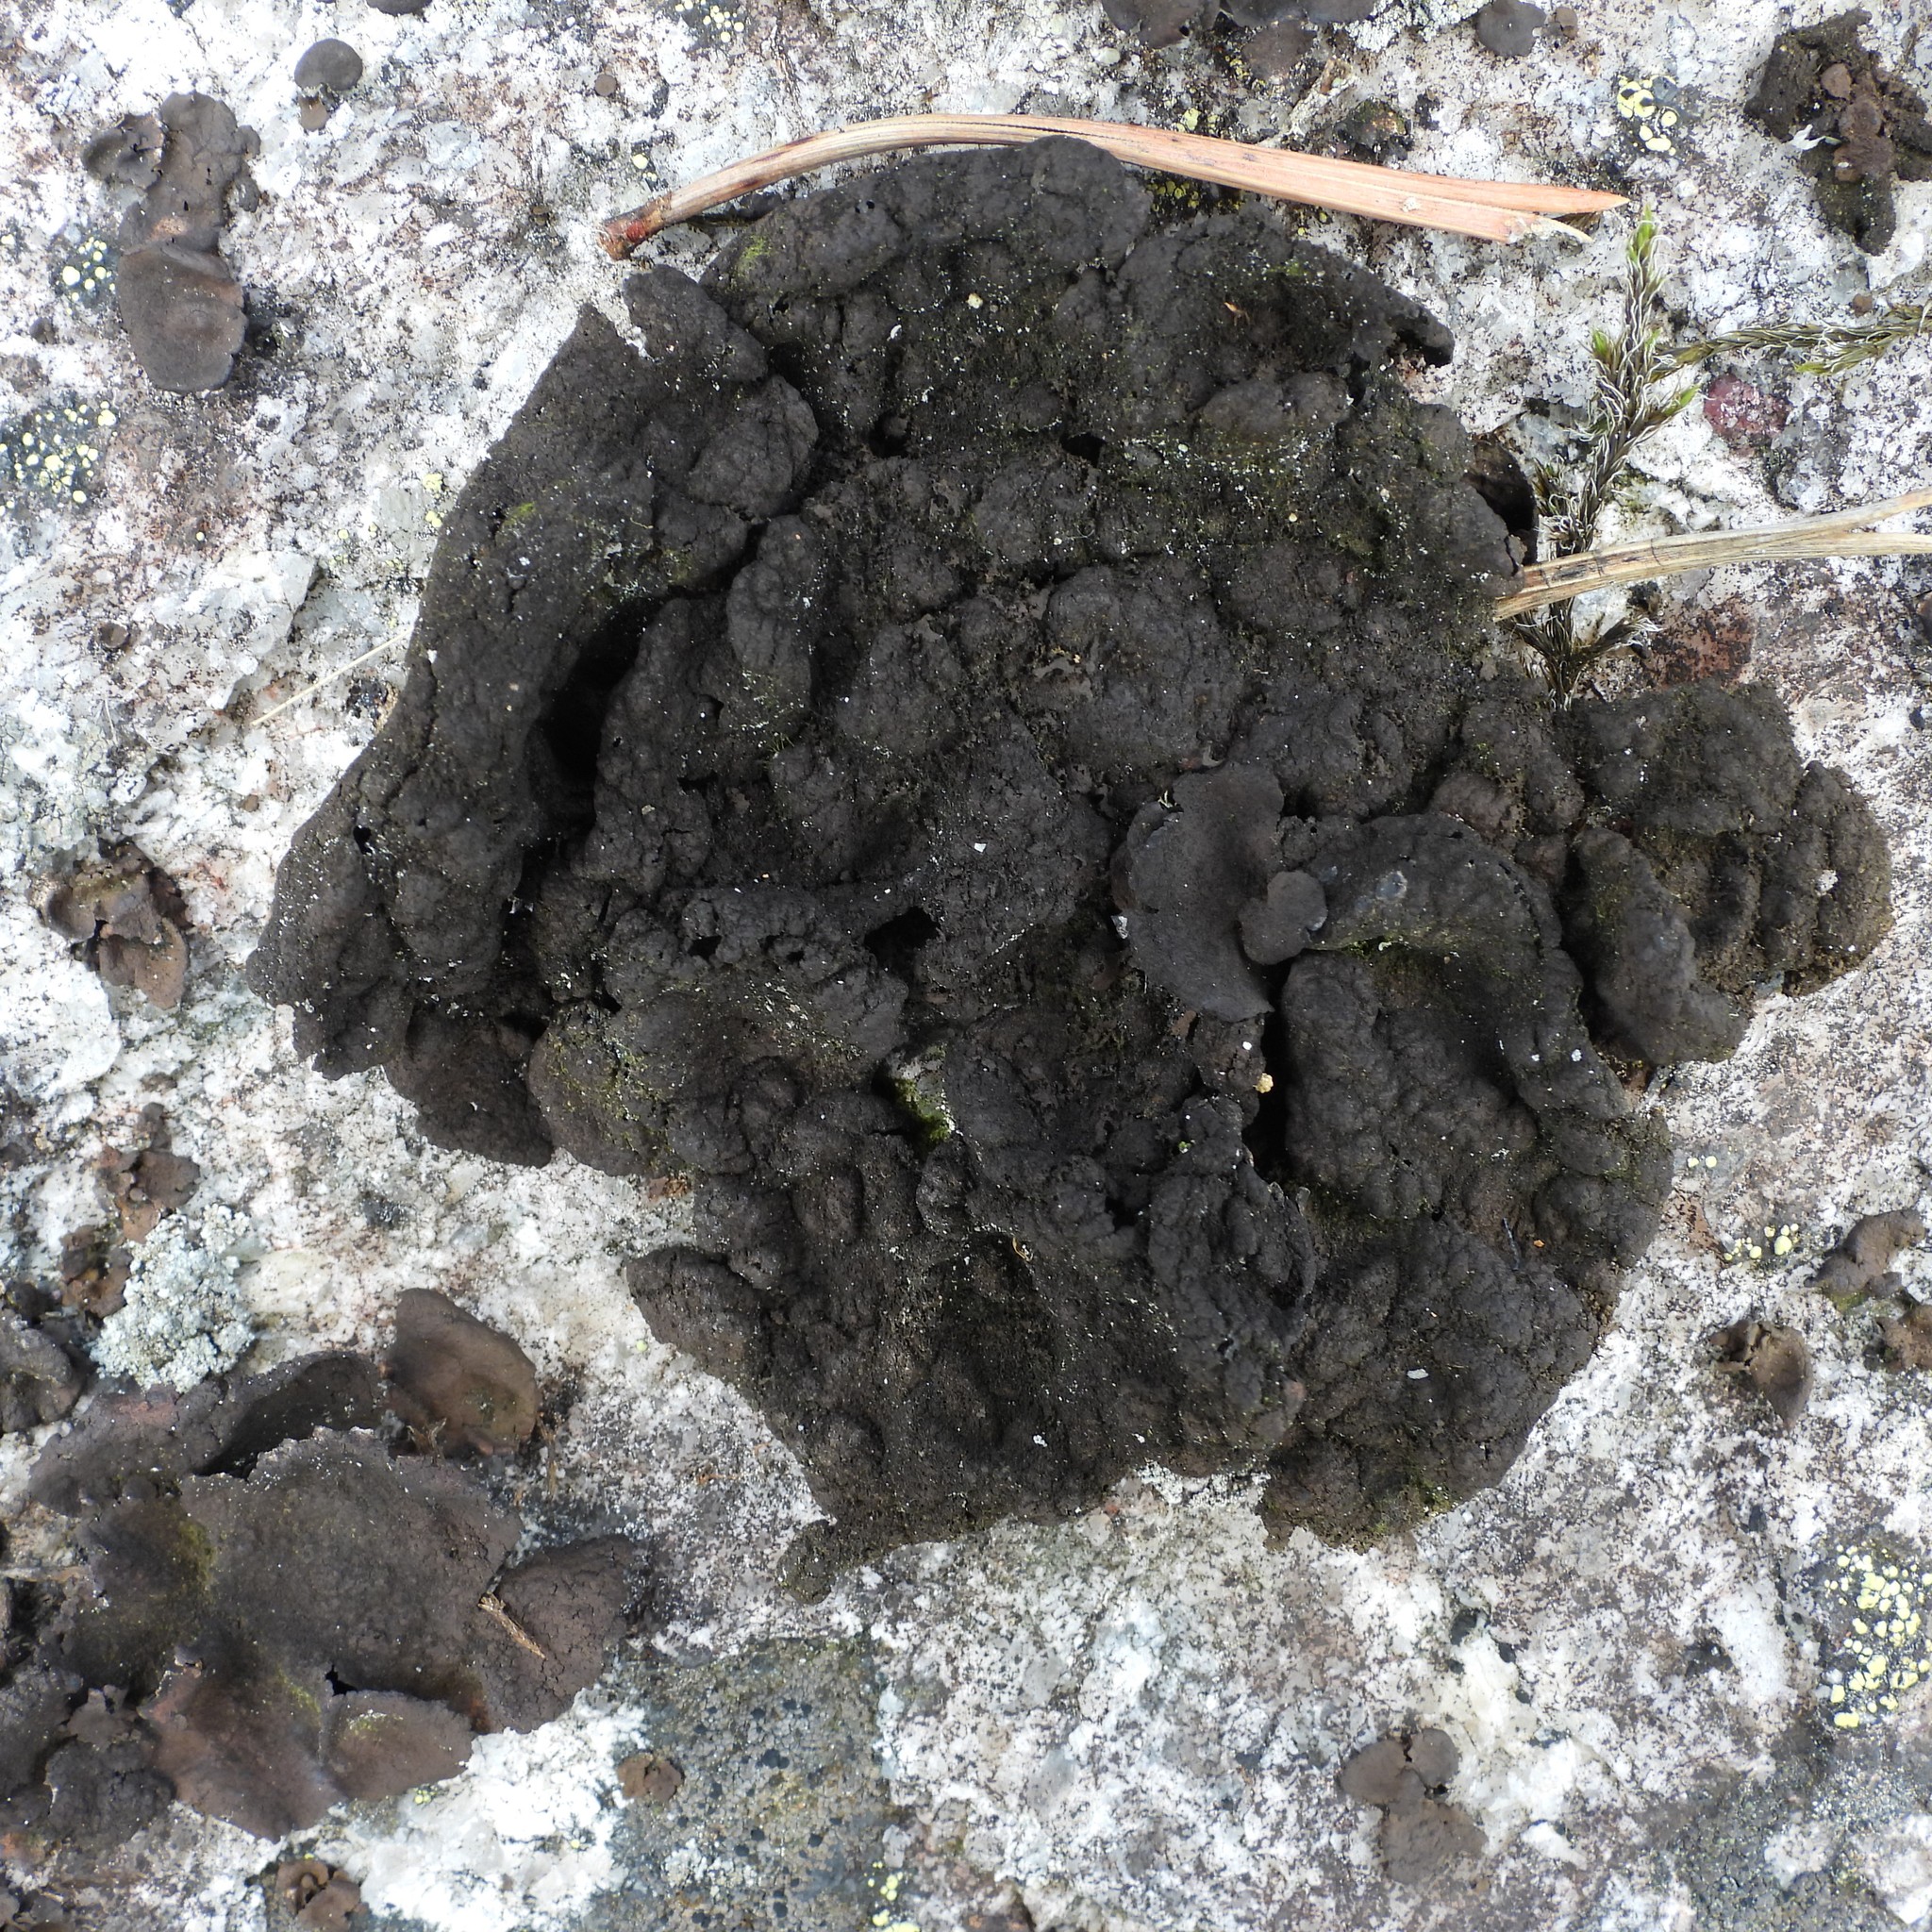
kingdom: Fungi
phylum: Ascomycota
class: Lecanoromycetes
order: Umbilicariales
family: Umbilicariaceae
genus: Umbilicaria
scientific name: Umbilicaria deusta
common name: Peppered rock tripe
